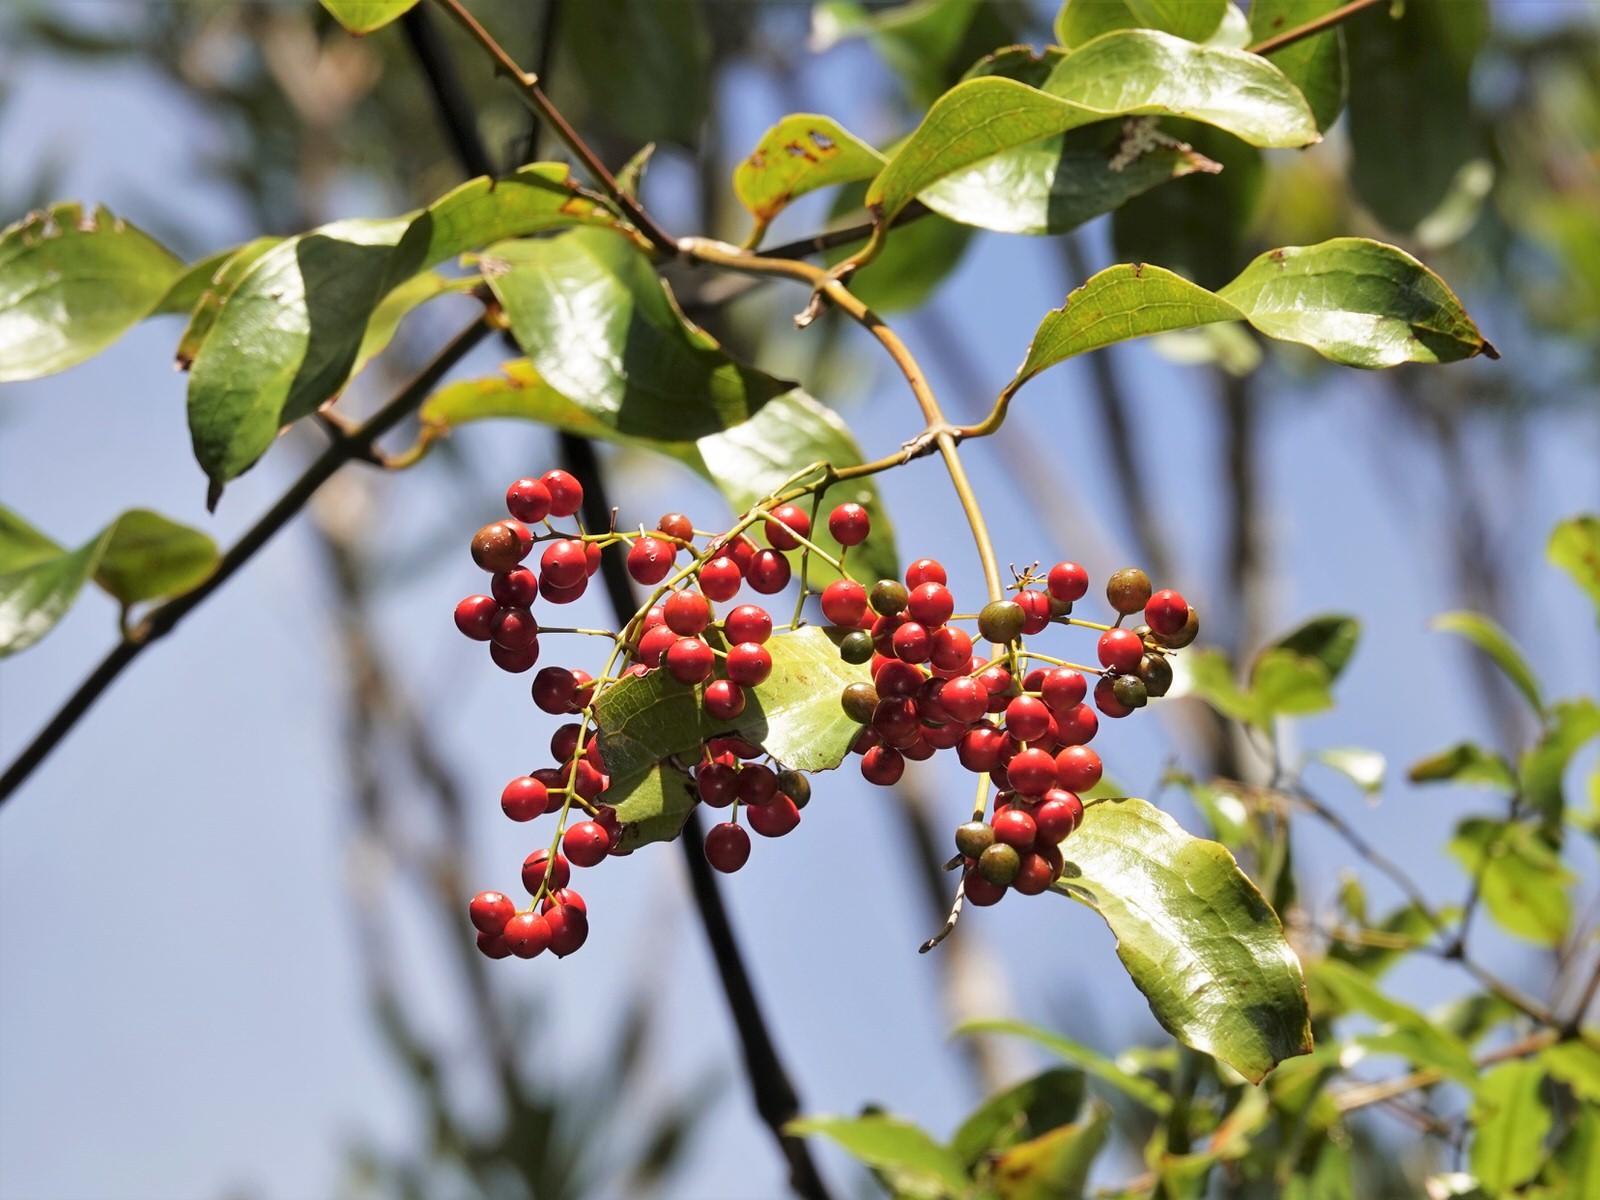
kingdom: Plantae
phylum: Tracheophyta
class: Liliopsida
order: Liliales
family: Ripogonaceae
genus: Ripogonum
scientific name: Ripogonum scandens
